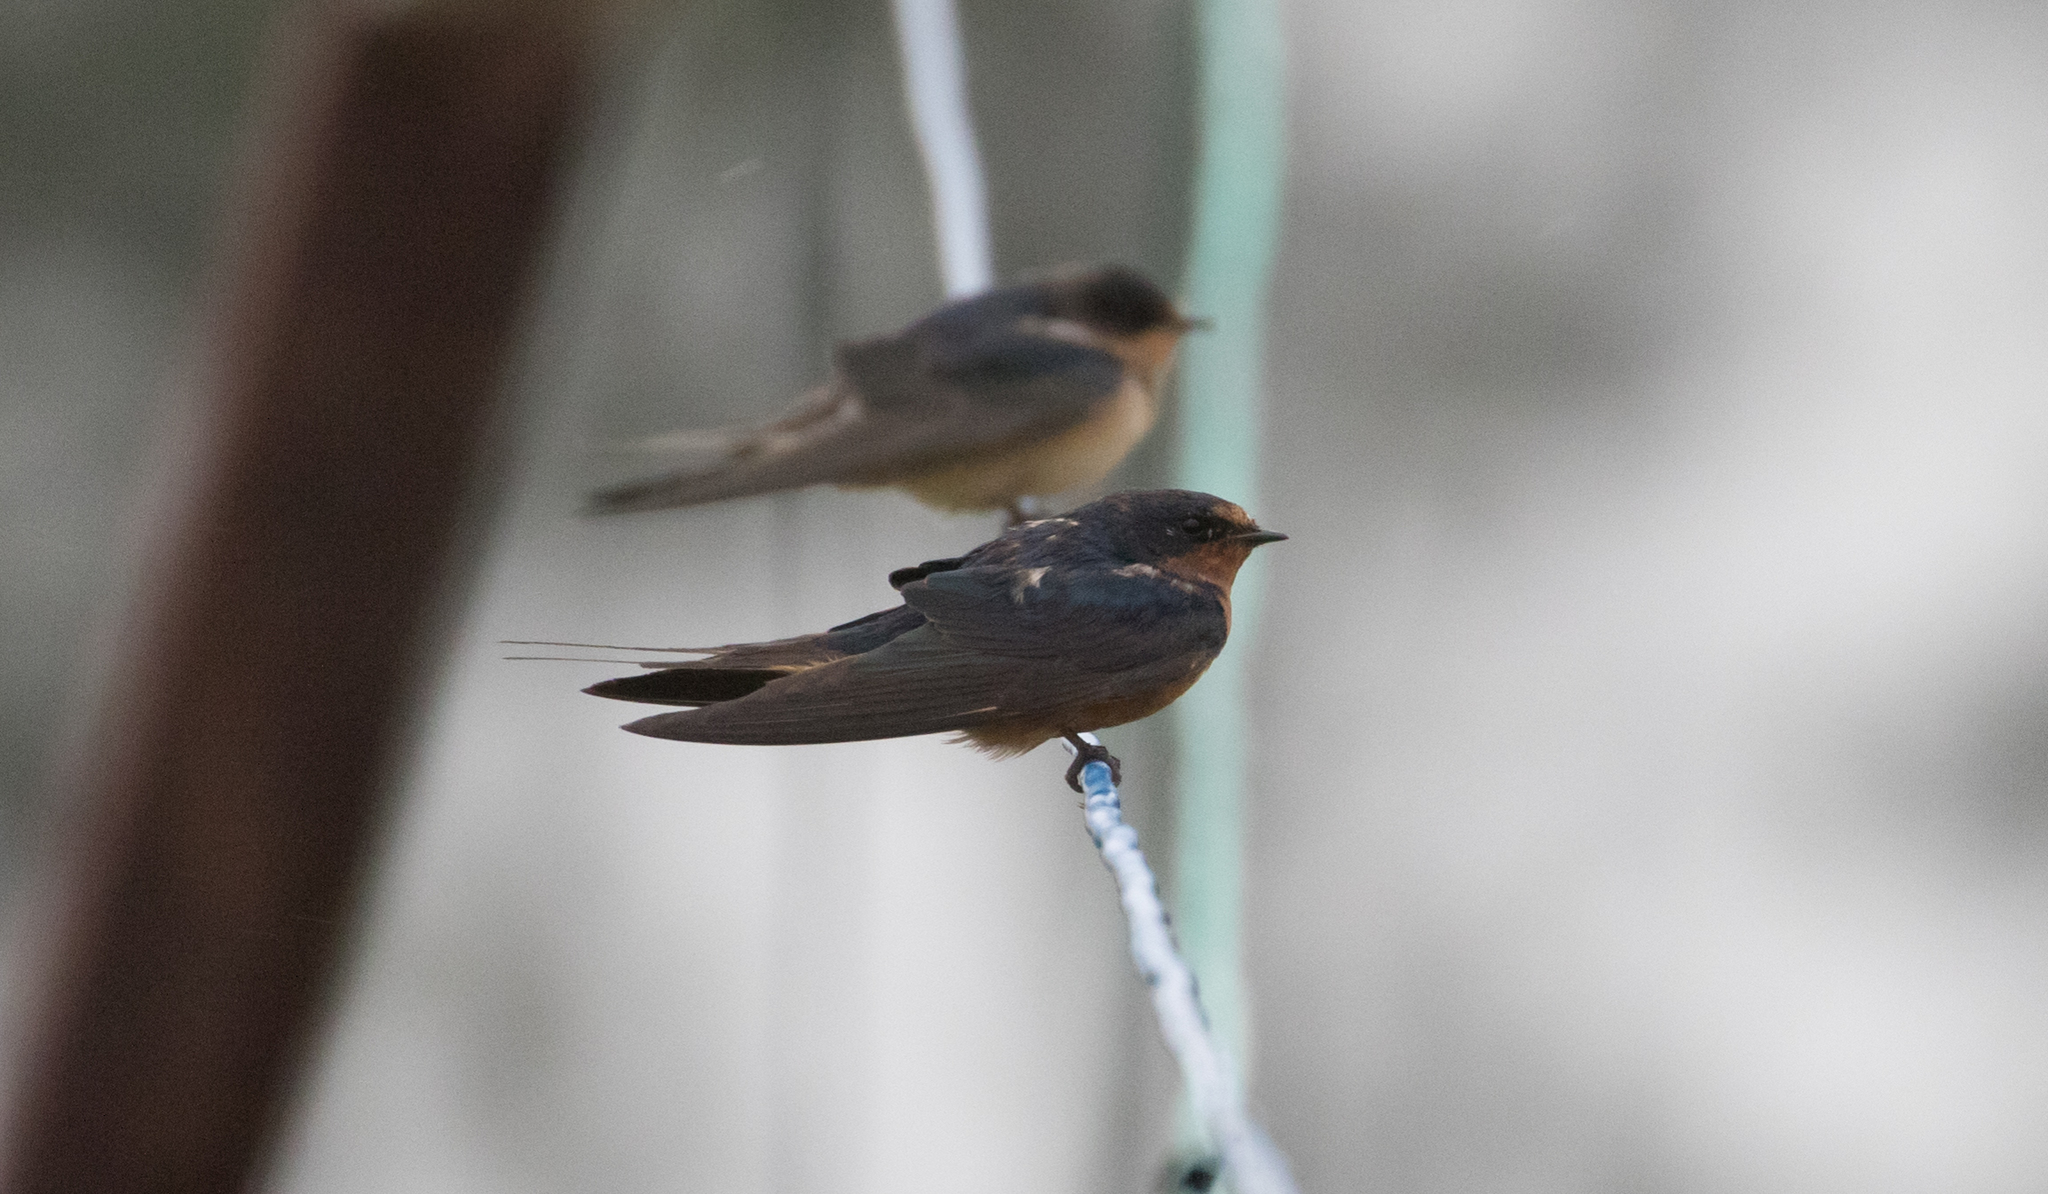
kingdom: Animalia
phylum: Chordata
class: Aves
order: Passeriformes
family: Hirundinidae
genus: Hirundo
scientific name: Hirundo rustica
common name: Barn swallow
